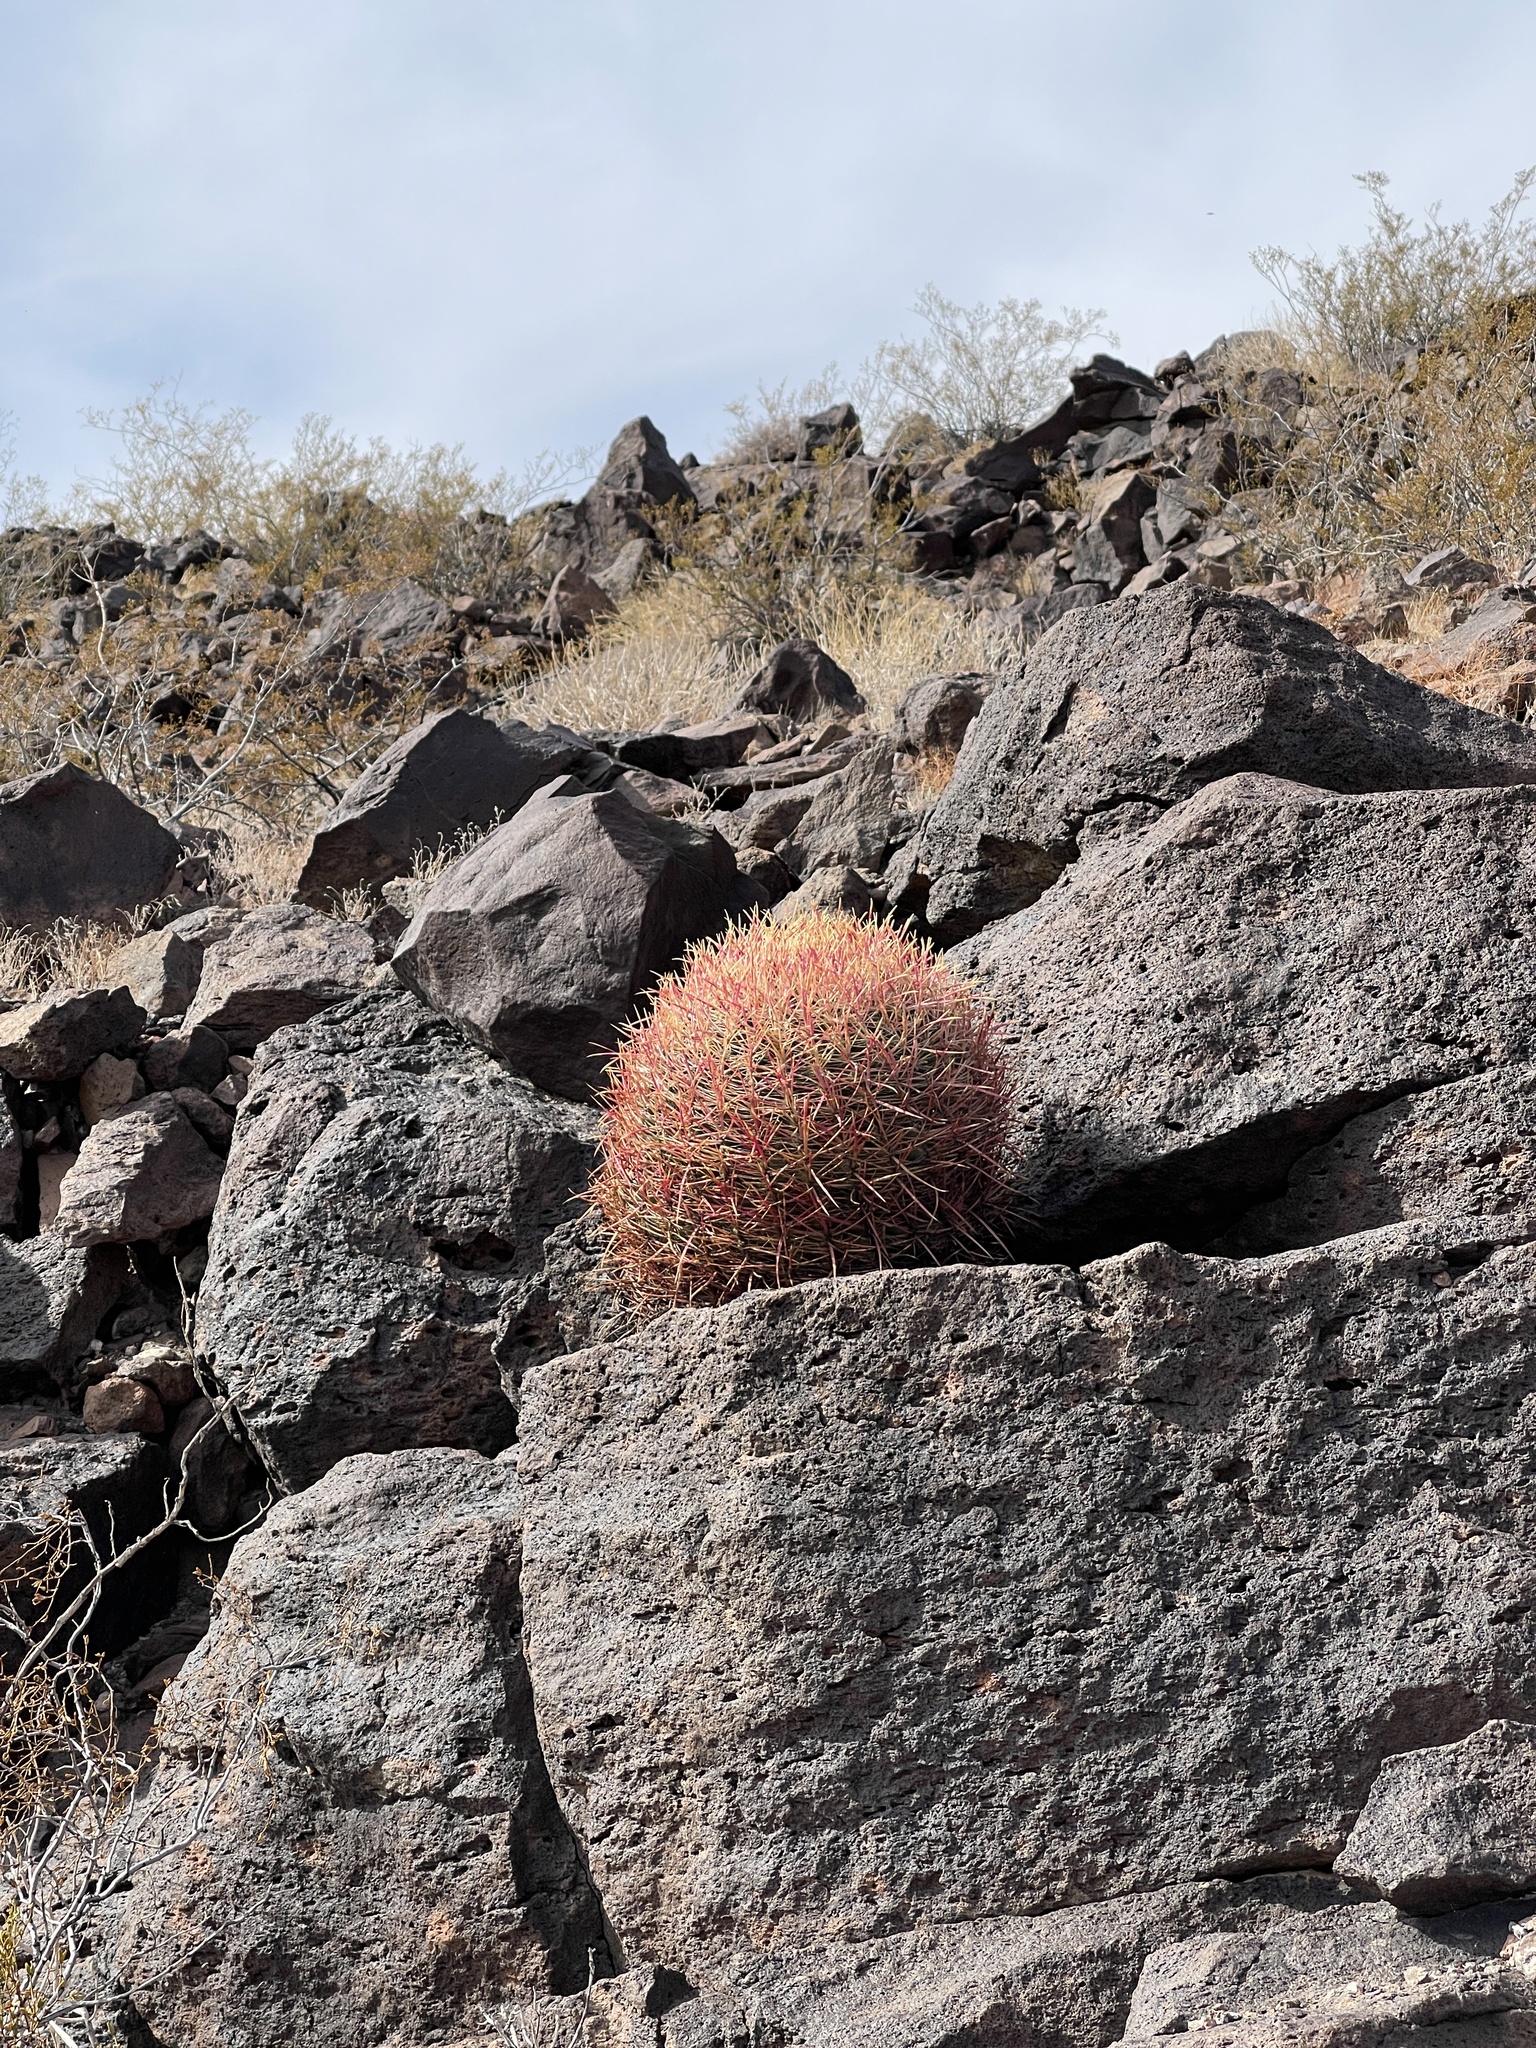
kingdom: Plantae
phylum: Tracheophyta
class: Magnoliopsida
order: Caryophyllales
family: Cactaceae
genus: Ferocactus
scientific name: Ferocactus cylindraceus
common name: California barrel cactus
